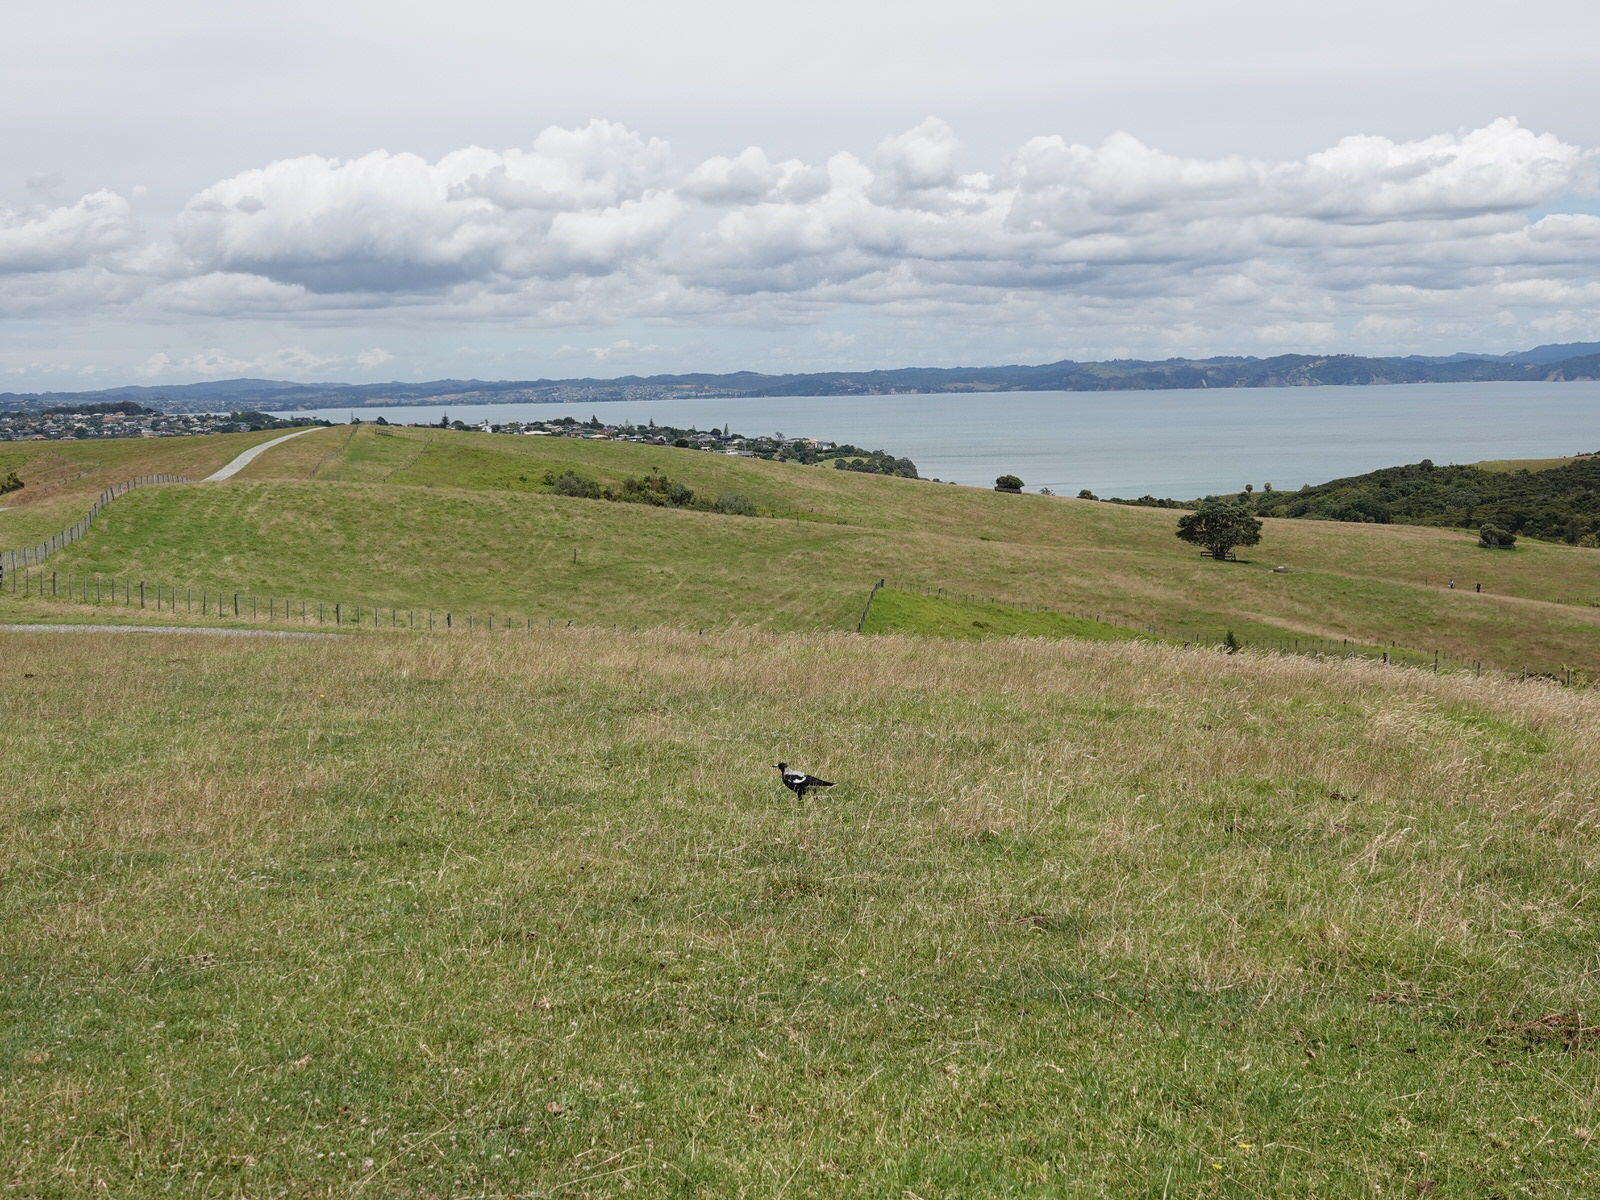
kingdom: Animalia
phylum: Chordata
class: Aves
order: Passeriformes
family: Cracticidae
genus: Gymnorhina
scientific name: Gymnorhina tibicen
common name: Australian magpie
